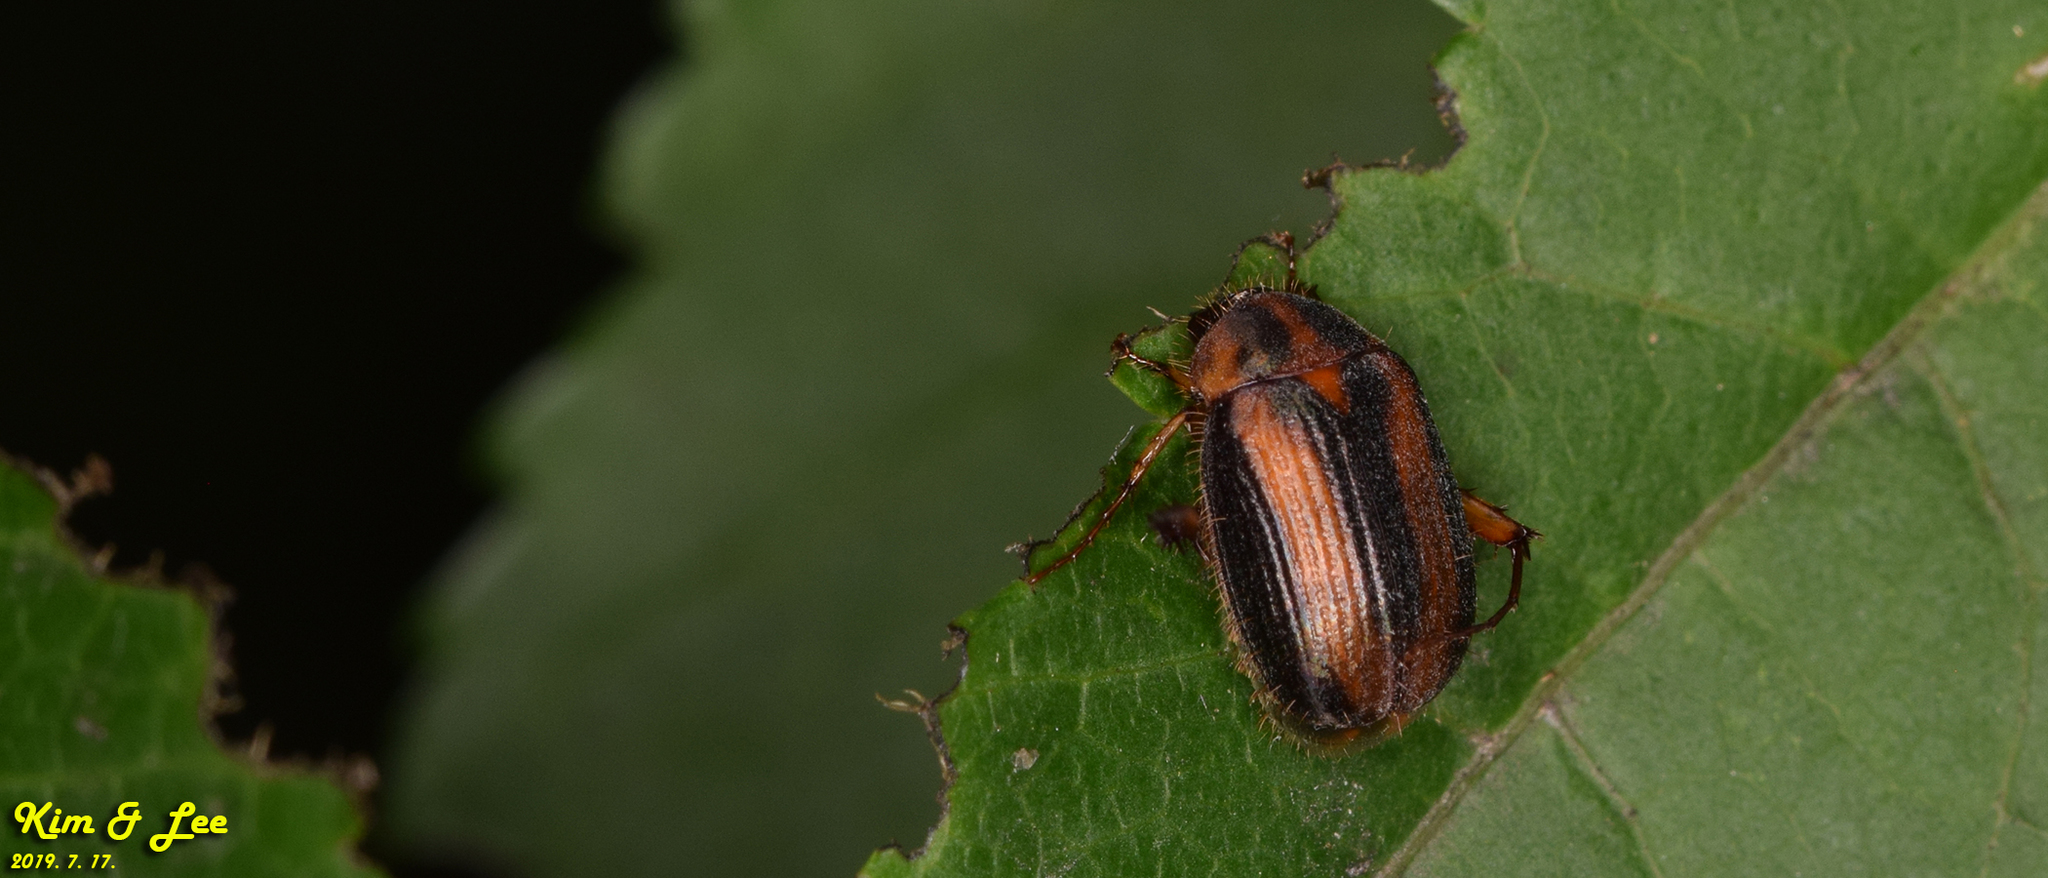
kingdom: Animalia
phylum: Arthropoda
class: Insecta
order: Coleoptera
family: Scarabaeidae
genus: Gastroserica
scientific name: Gastroserica herzi
